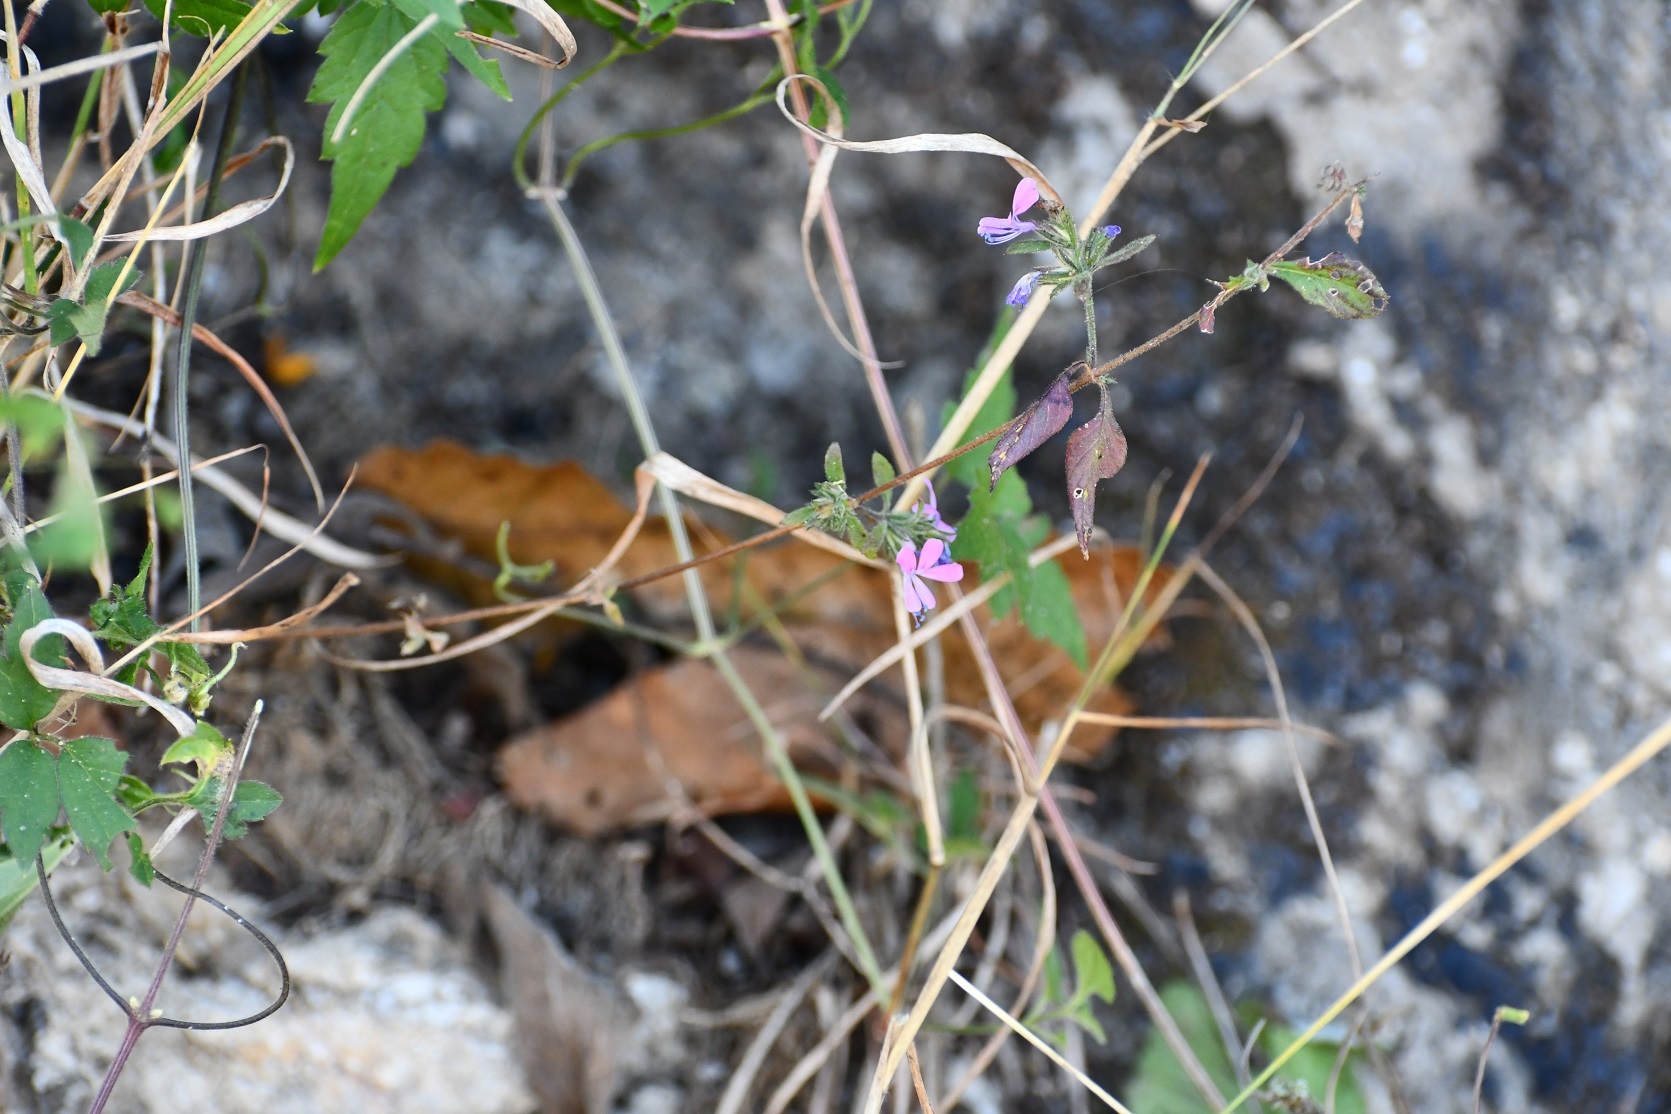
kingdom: Plantae
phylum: Tracheophyta
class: Magnoliopsida
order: Ericales
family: Polemoniaceae
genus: Loeselia
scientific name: Loeselia glandulosa
